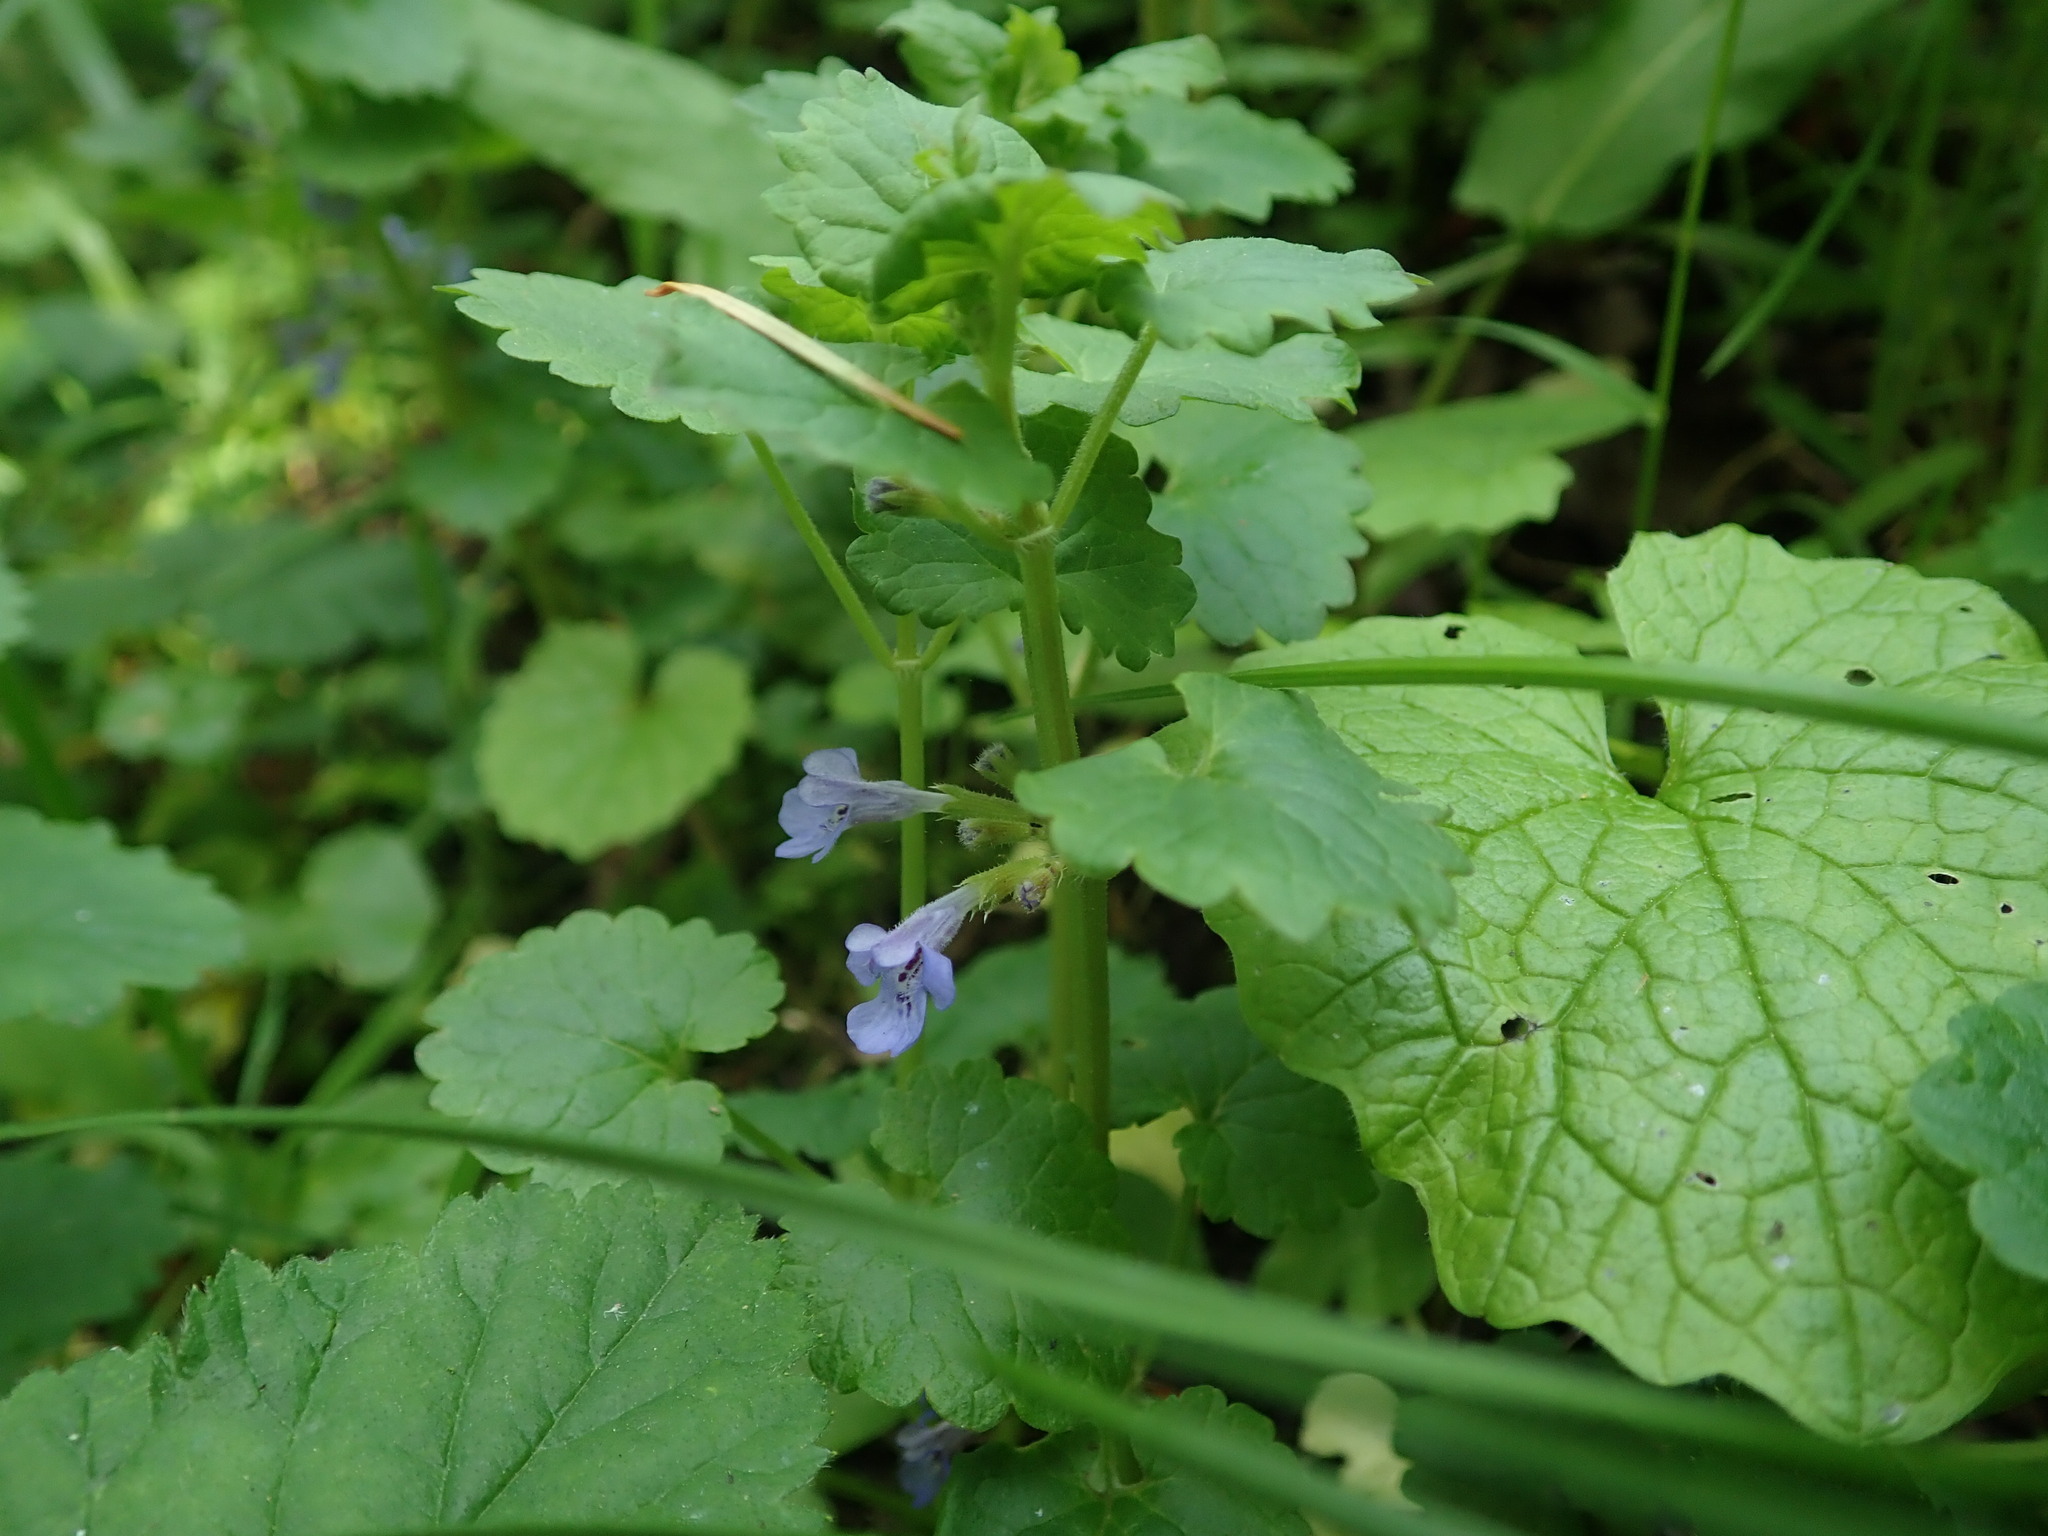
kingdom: Plantae
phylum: Tracheophyta
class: Magnoliopsida
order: Lamiales
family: Lamiaceae
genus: Glechoma
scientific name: Glechoma hederacea
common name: Ground ivy
